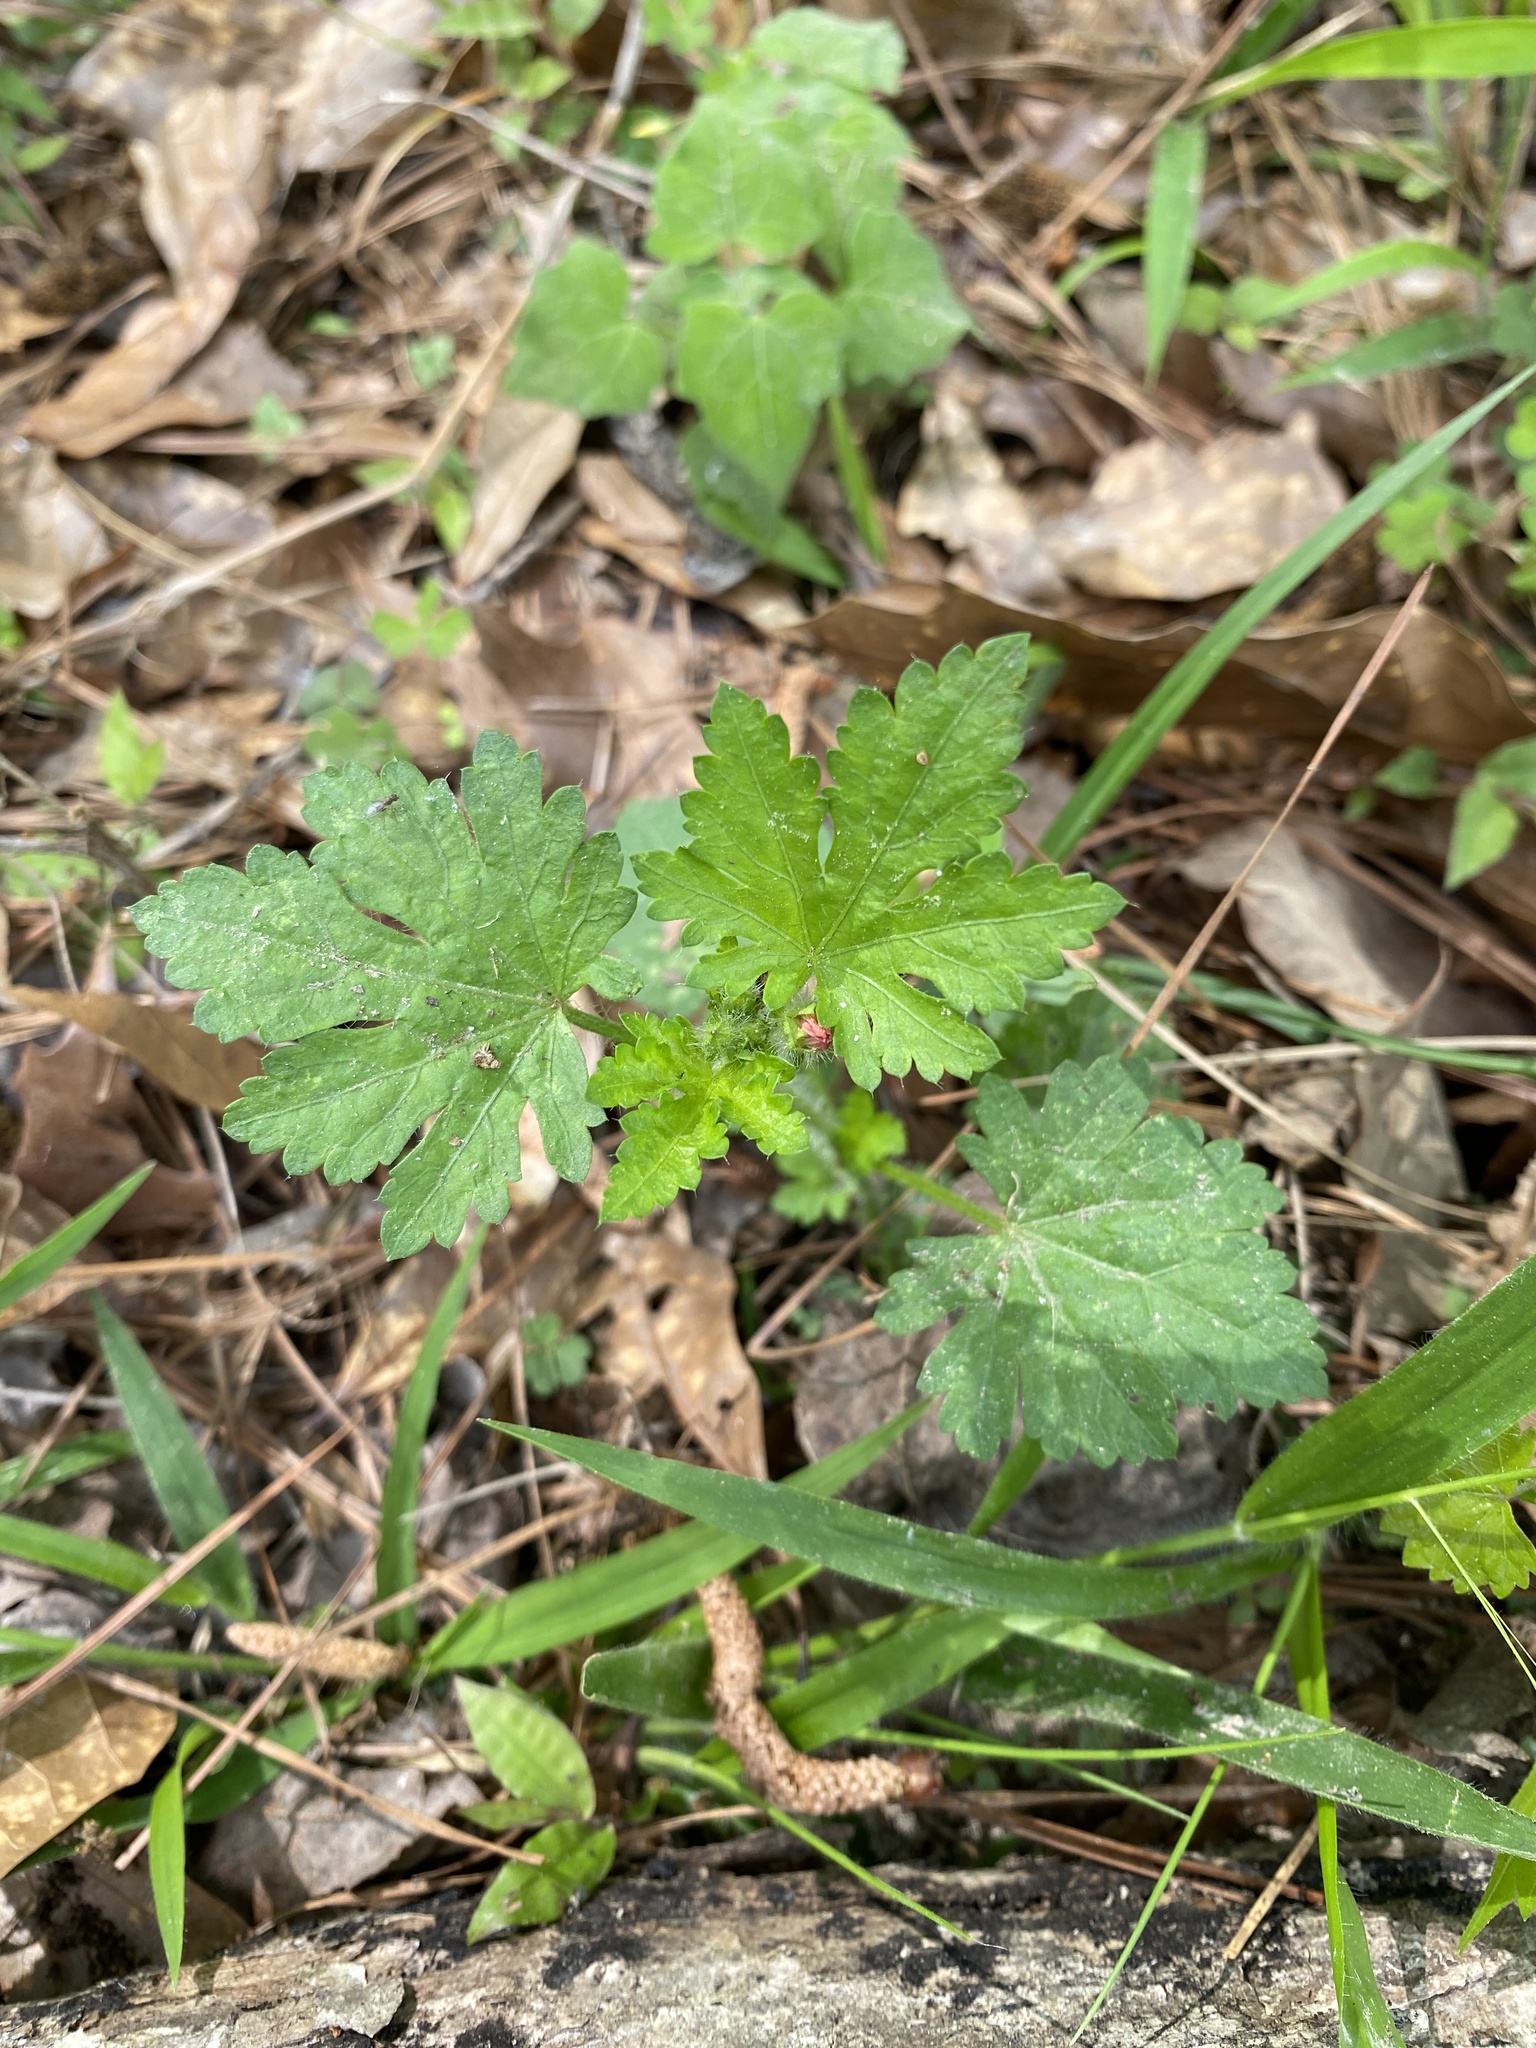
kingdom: Plantae
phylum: Tracheophyta
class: Magnoliopsida
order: Malvales
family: Malvaceae
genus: Modiola
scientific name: Modiola caroliniana
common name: Carolina bristlemallow
